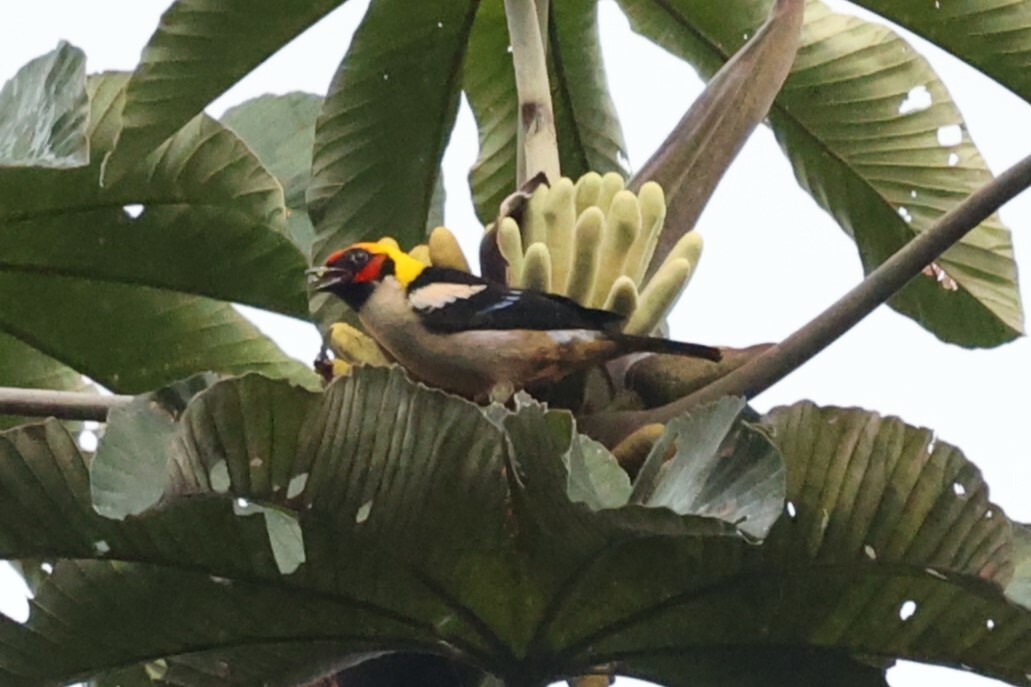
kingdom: Animalia
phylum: Chordata
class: Aves
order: Passeriformes
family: Thraupidae
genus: Tangara
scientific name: Tangara parzudakii
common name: Flame-faced tanager
